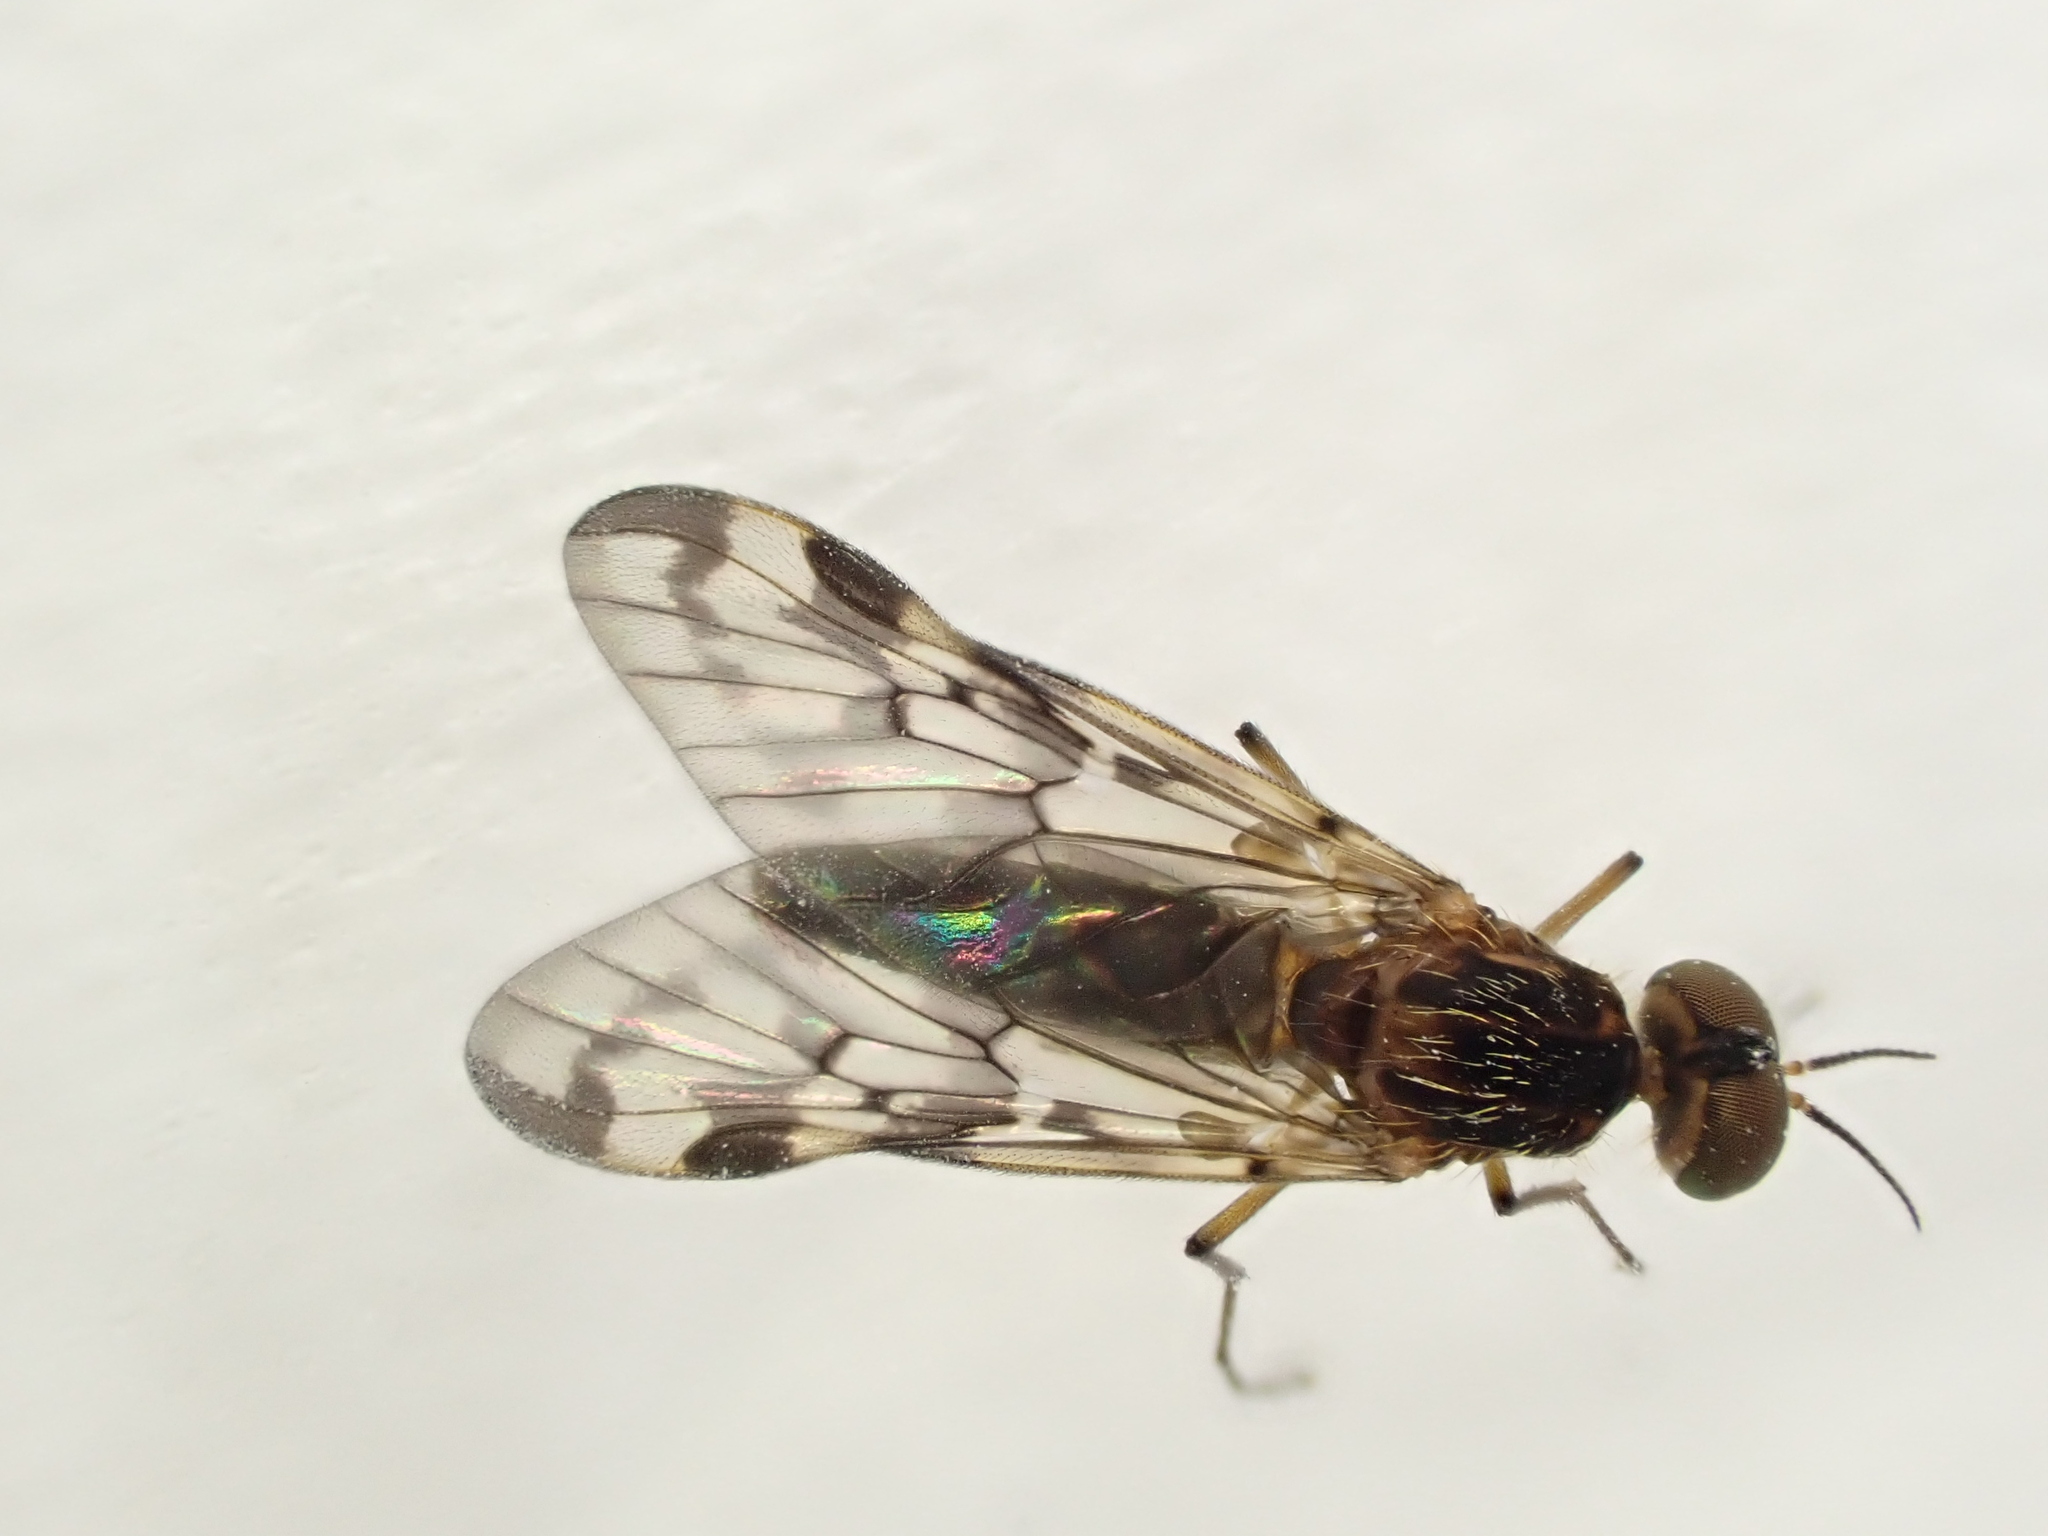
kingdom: Animalia
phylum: Arthropoda
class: Insecta
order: Diptera
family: Anisopodidae
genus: Sylvicola
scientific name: Sylvicola dubius
